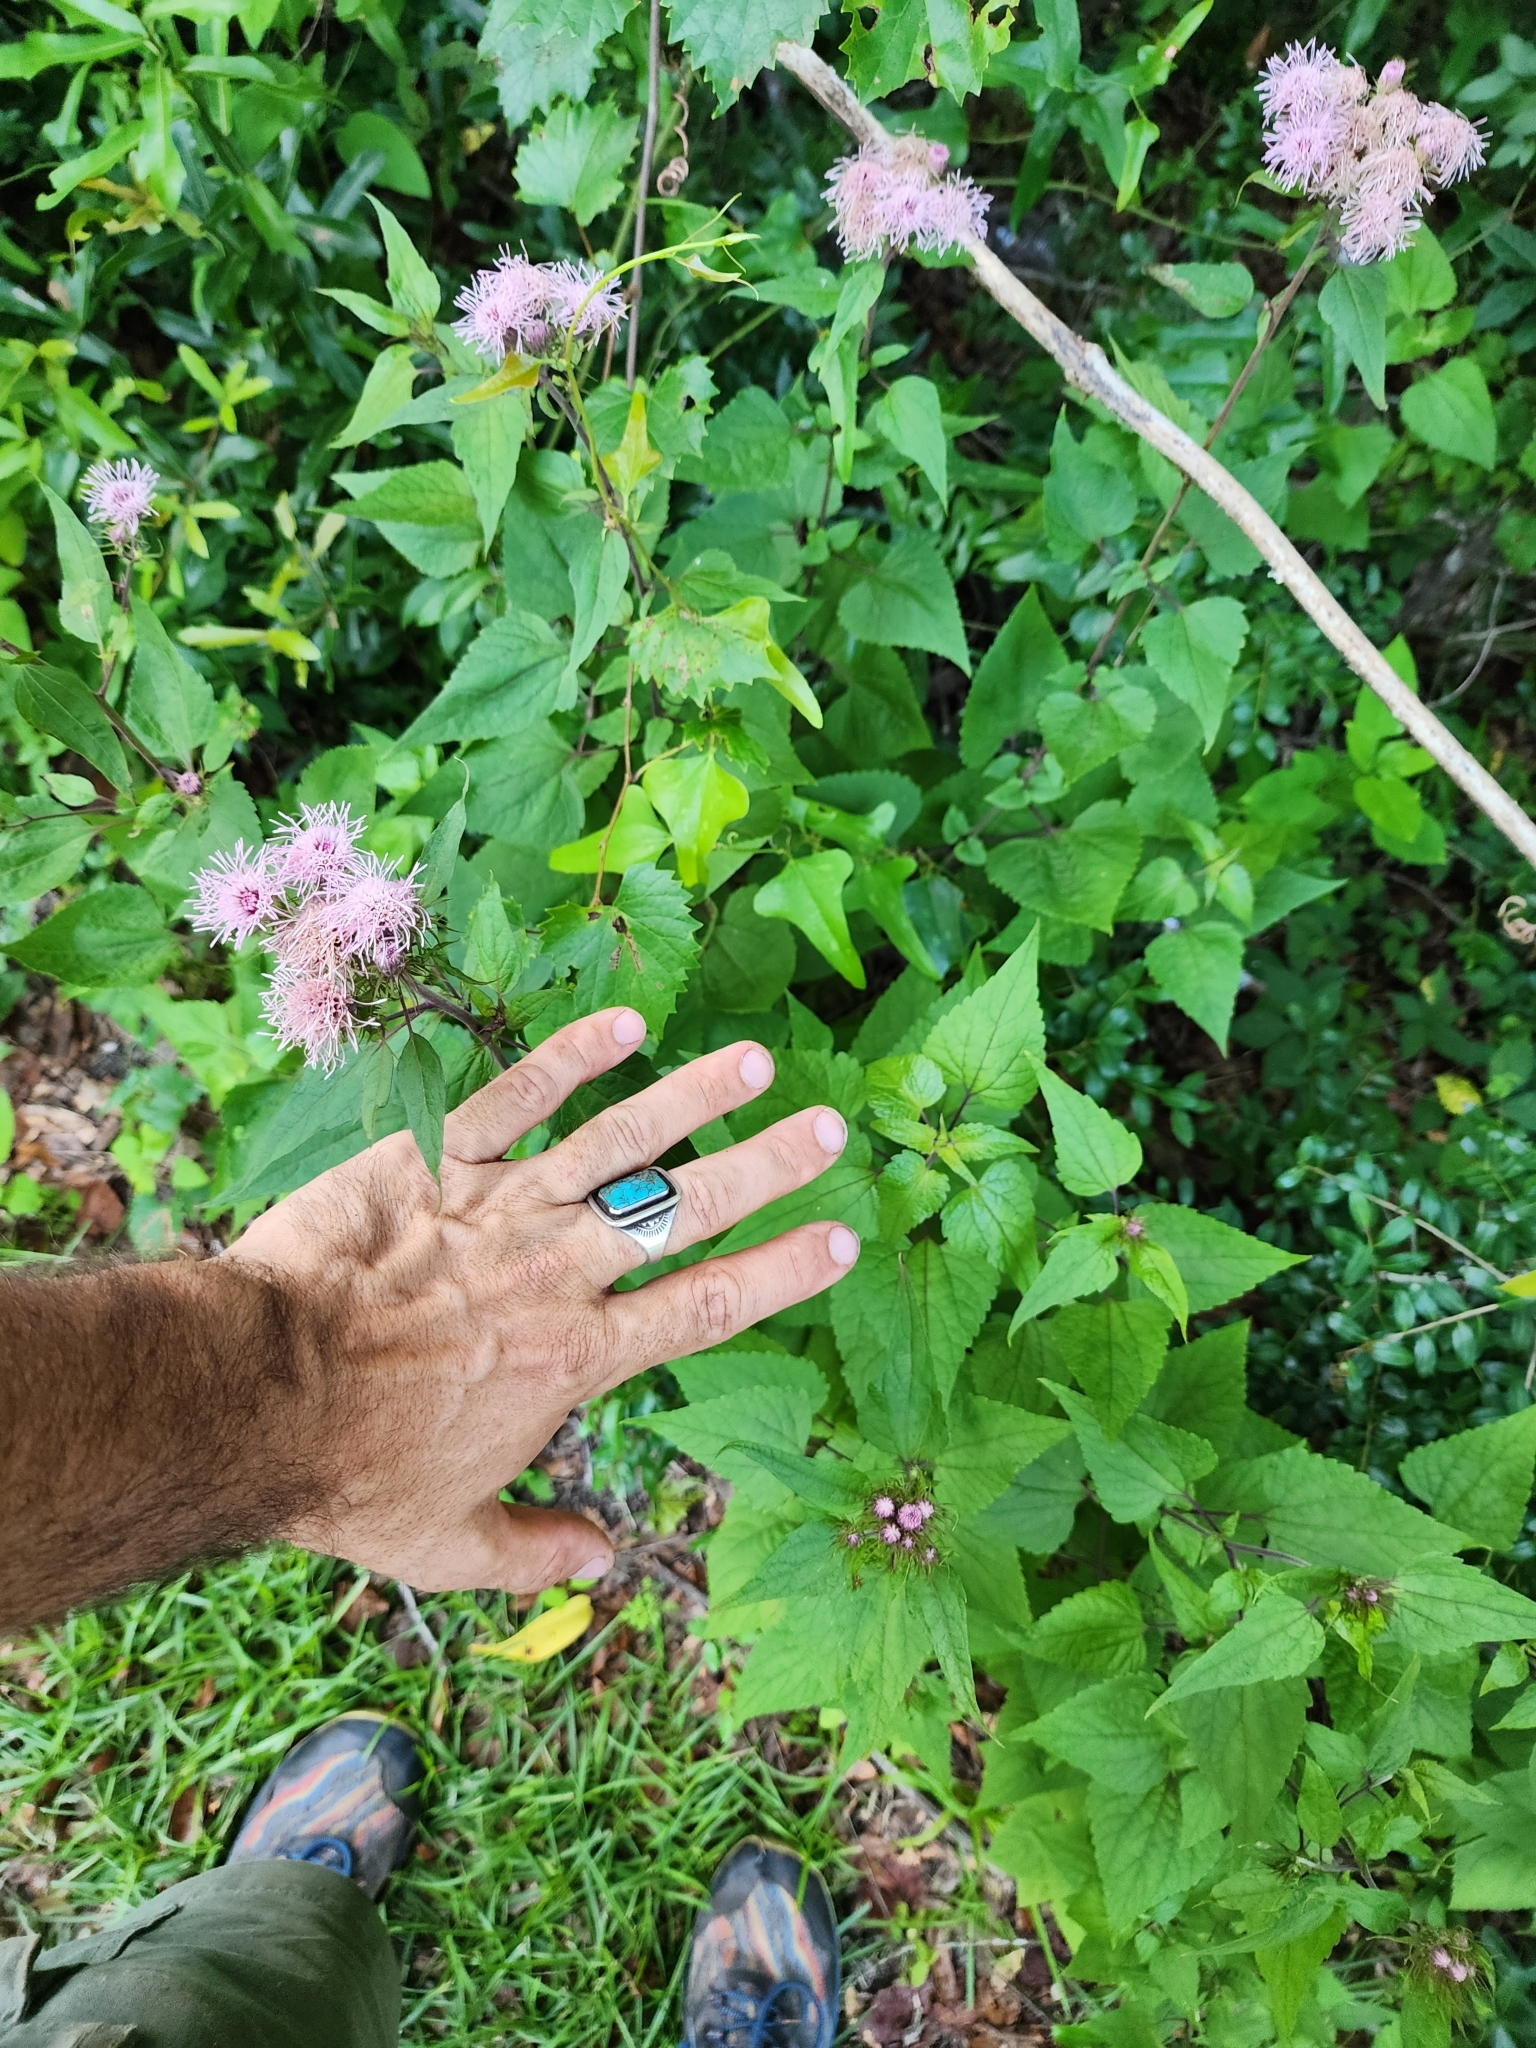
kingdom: Plantae
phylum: Tracheophyta
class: Magnoliopsida
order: Asterales
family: Asteraceae
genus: Brickellia
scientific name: Brickellia cordifolia
